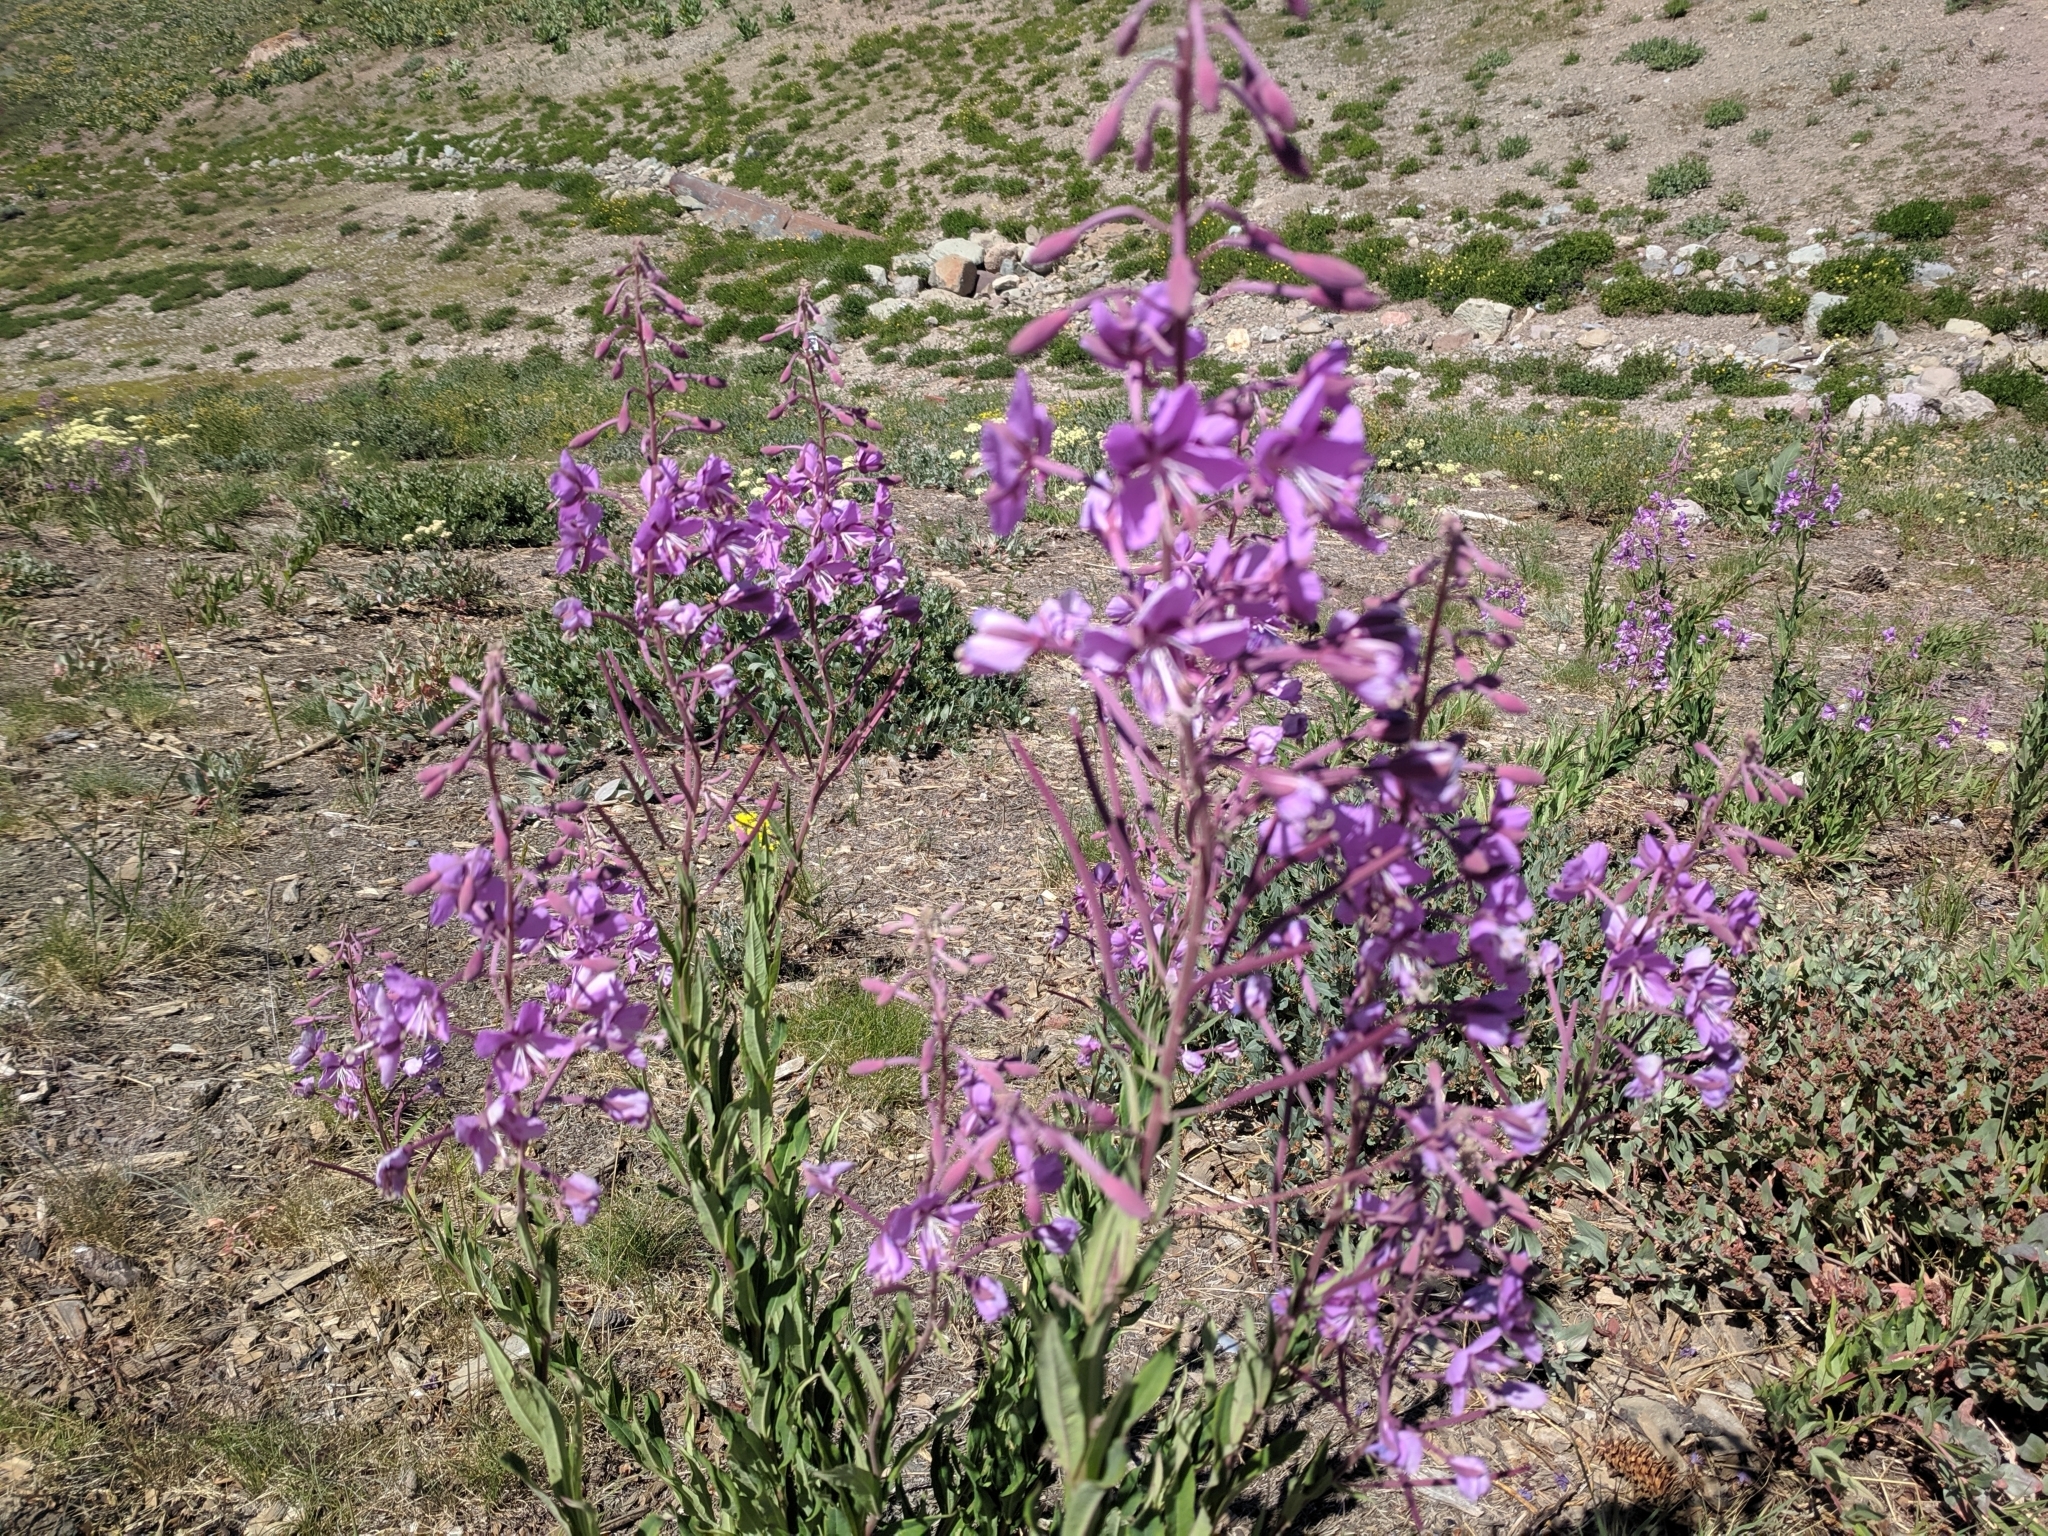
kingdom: Plantae
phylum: Tracheophyta
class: Magnoliopsida
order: Myrtales
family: Onagraceae
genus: Chamaenerion
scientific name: Chamaenerion angustifolium
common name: Fireweed
